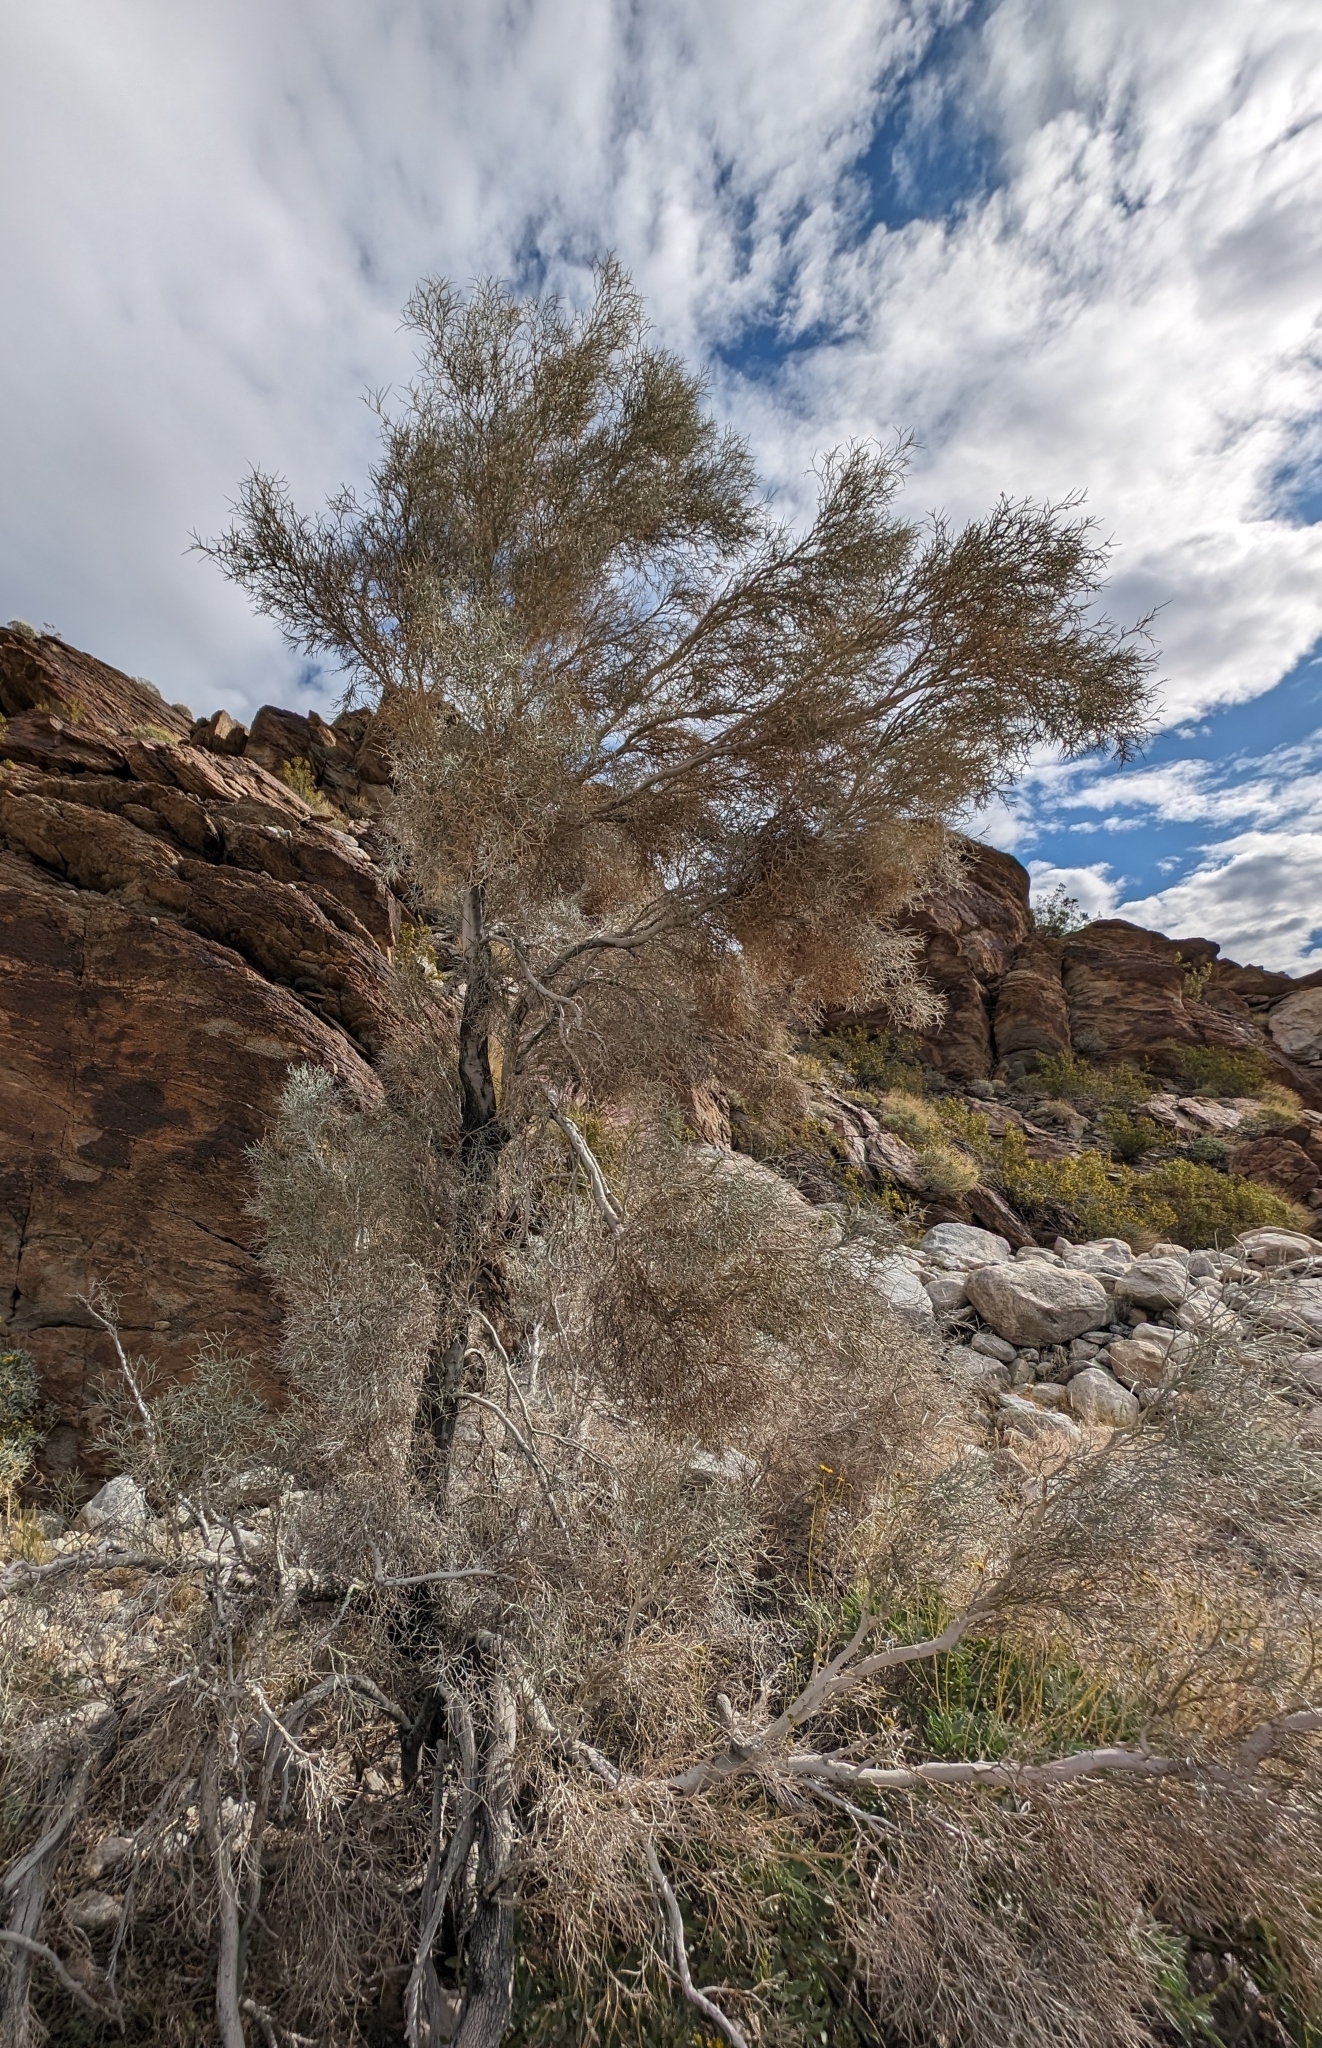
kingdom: Plantae
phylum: Tracheophyta
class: Magnoliopsida
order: Fabales
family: Fabaceae
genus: Psorothamnus
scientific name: Psorothamnus spinosus
